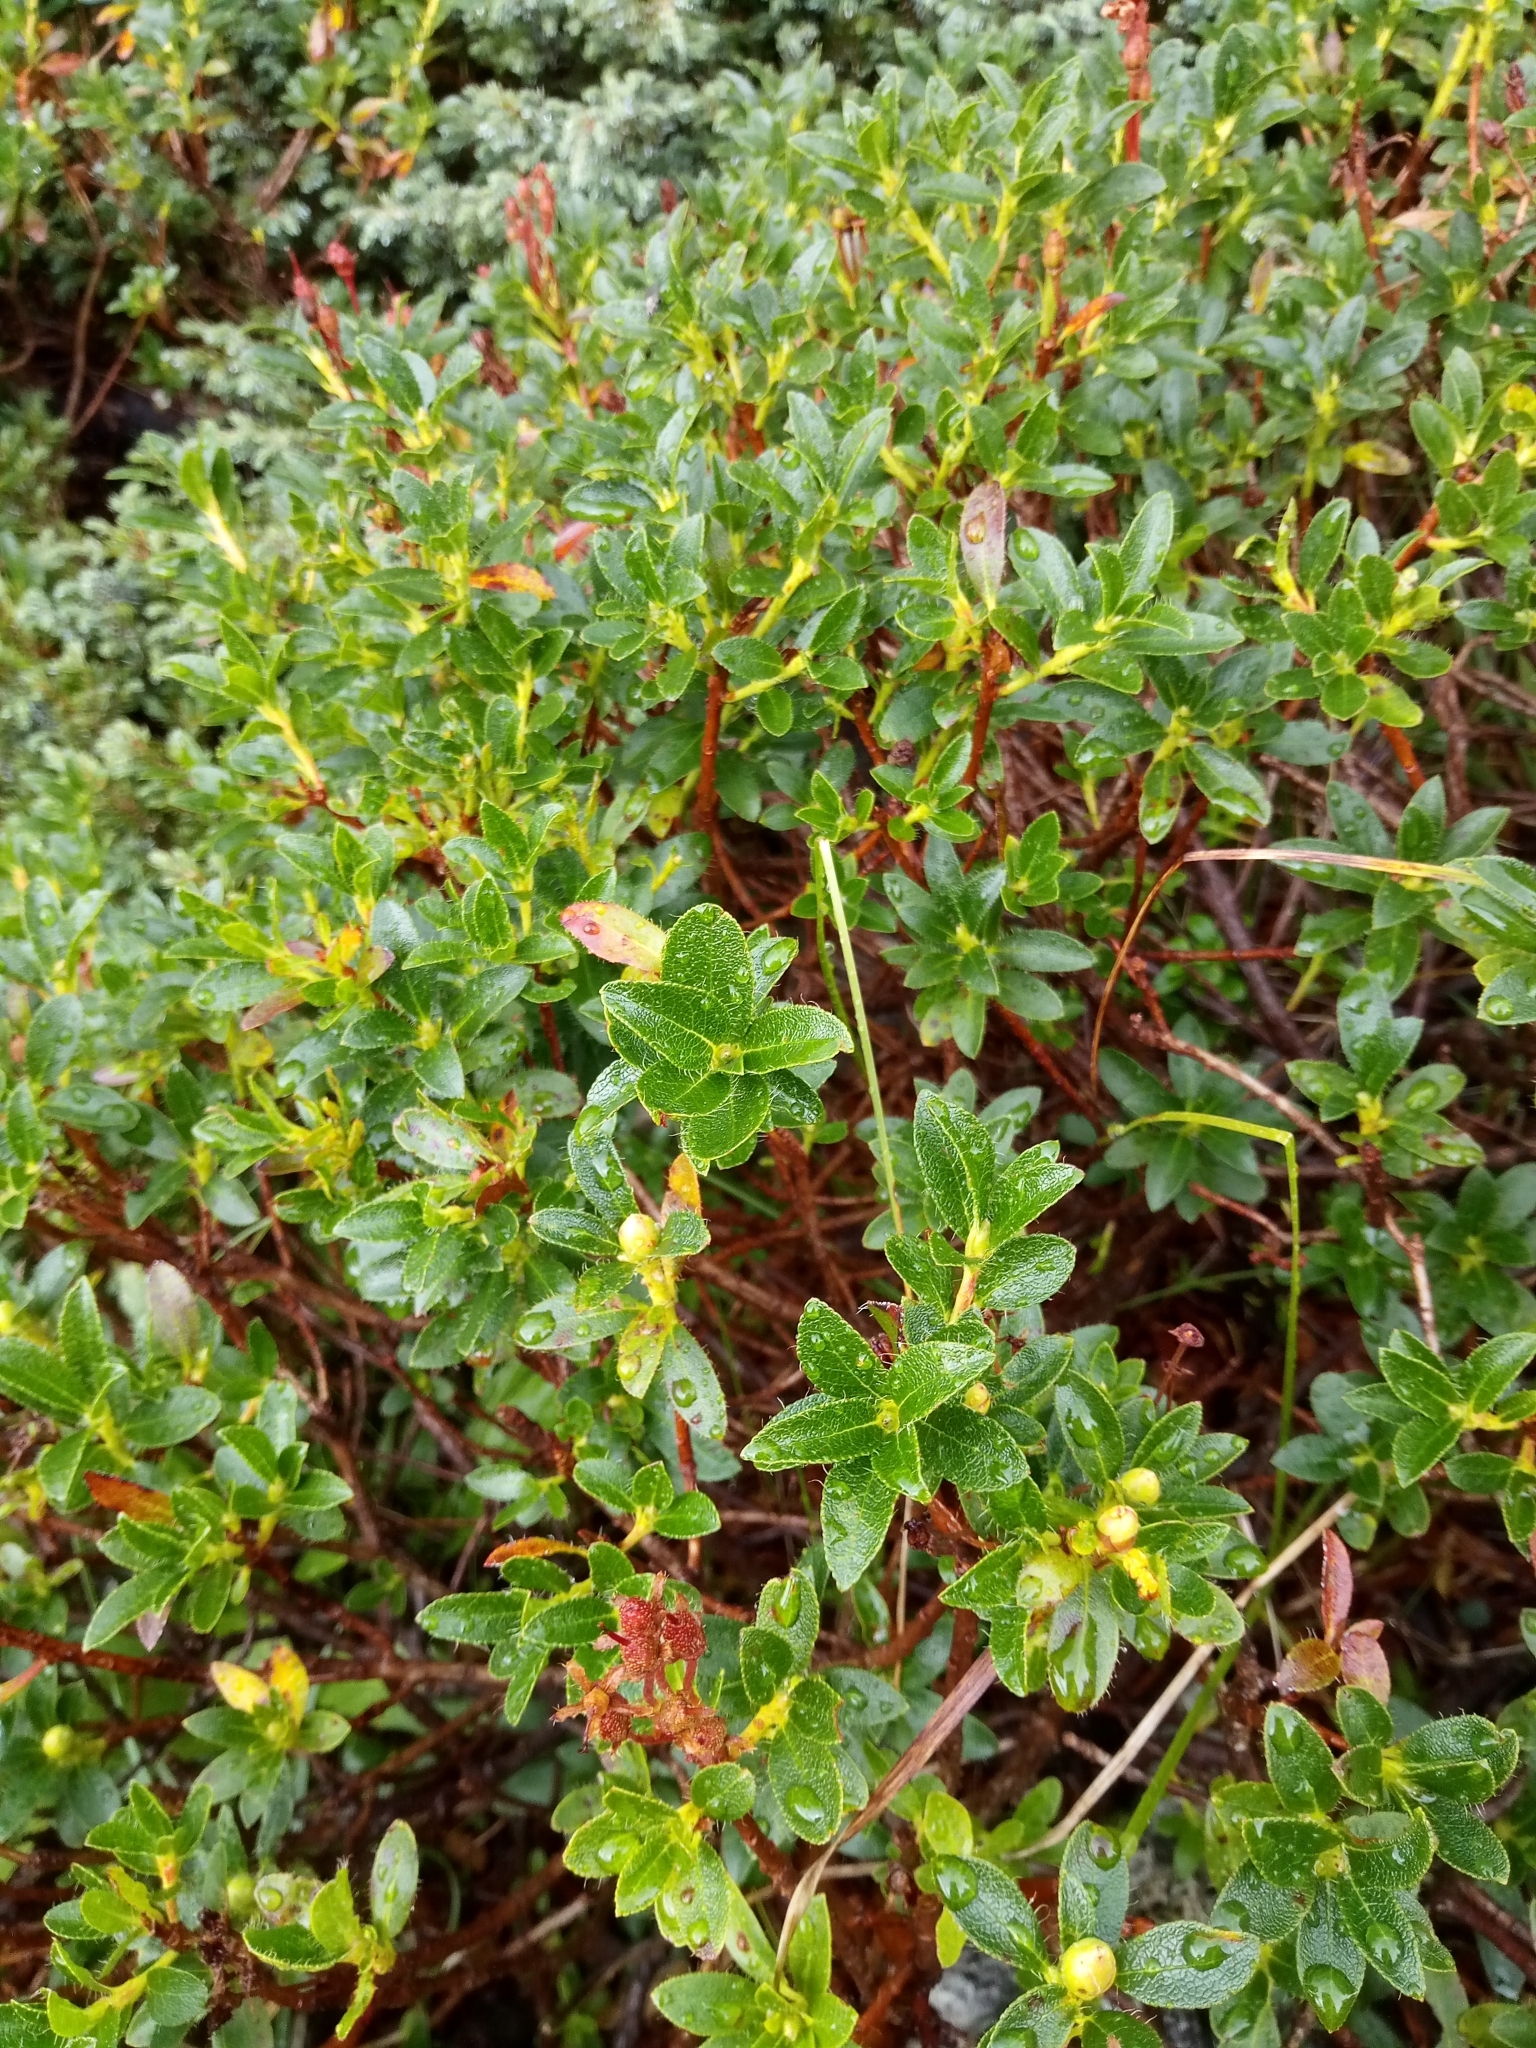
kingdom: Plantae
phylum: Tracheophyta
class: Magnoliopsida
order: Ericales
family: Ericaceae
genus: Rhododendron
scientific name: Rhododendron hirsutum
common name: Hairy alpenrose
